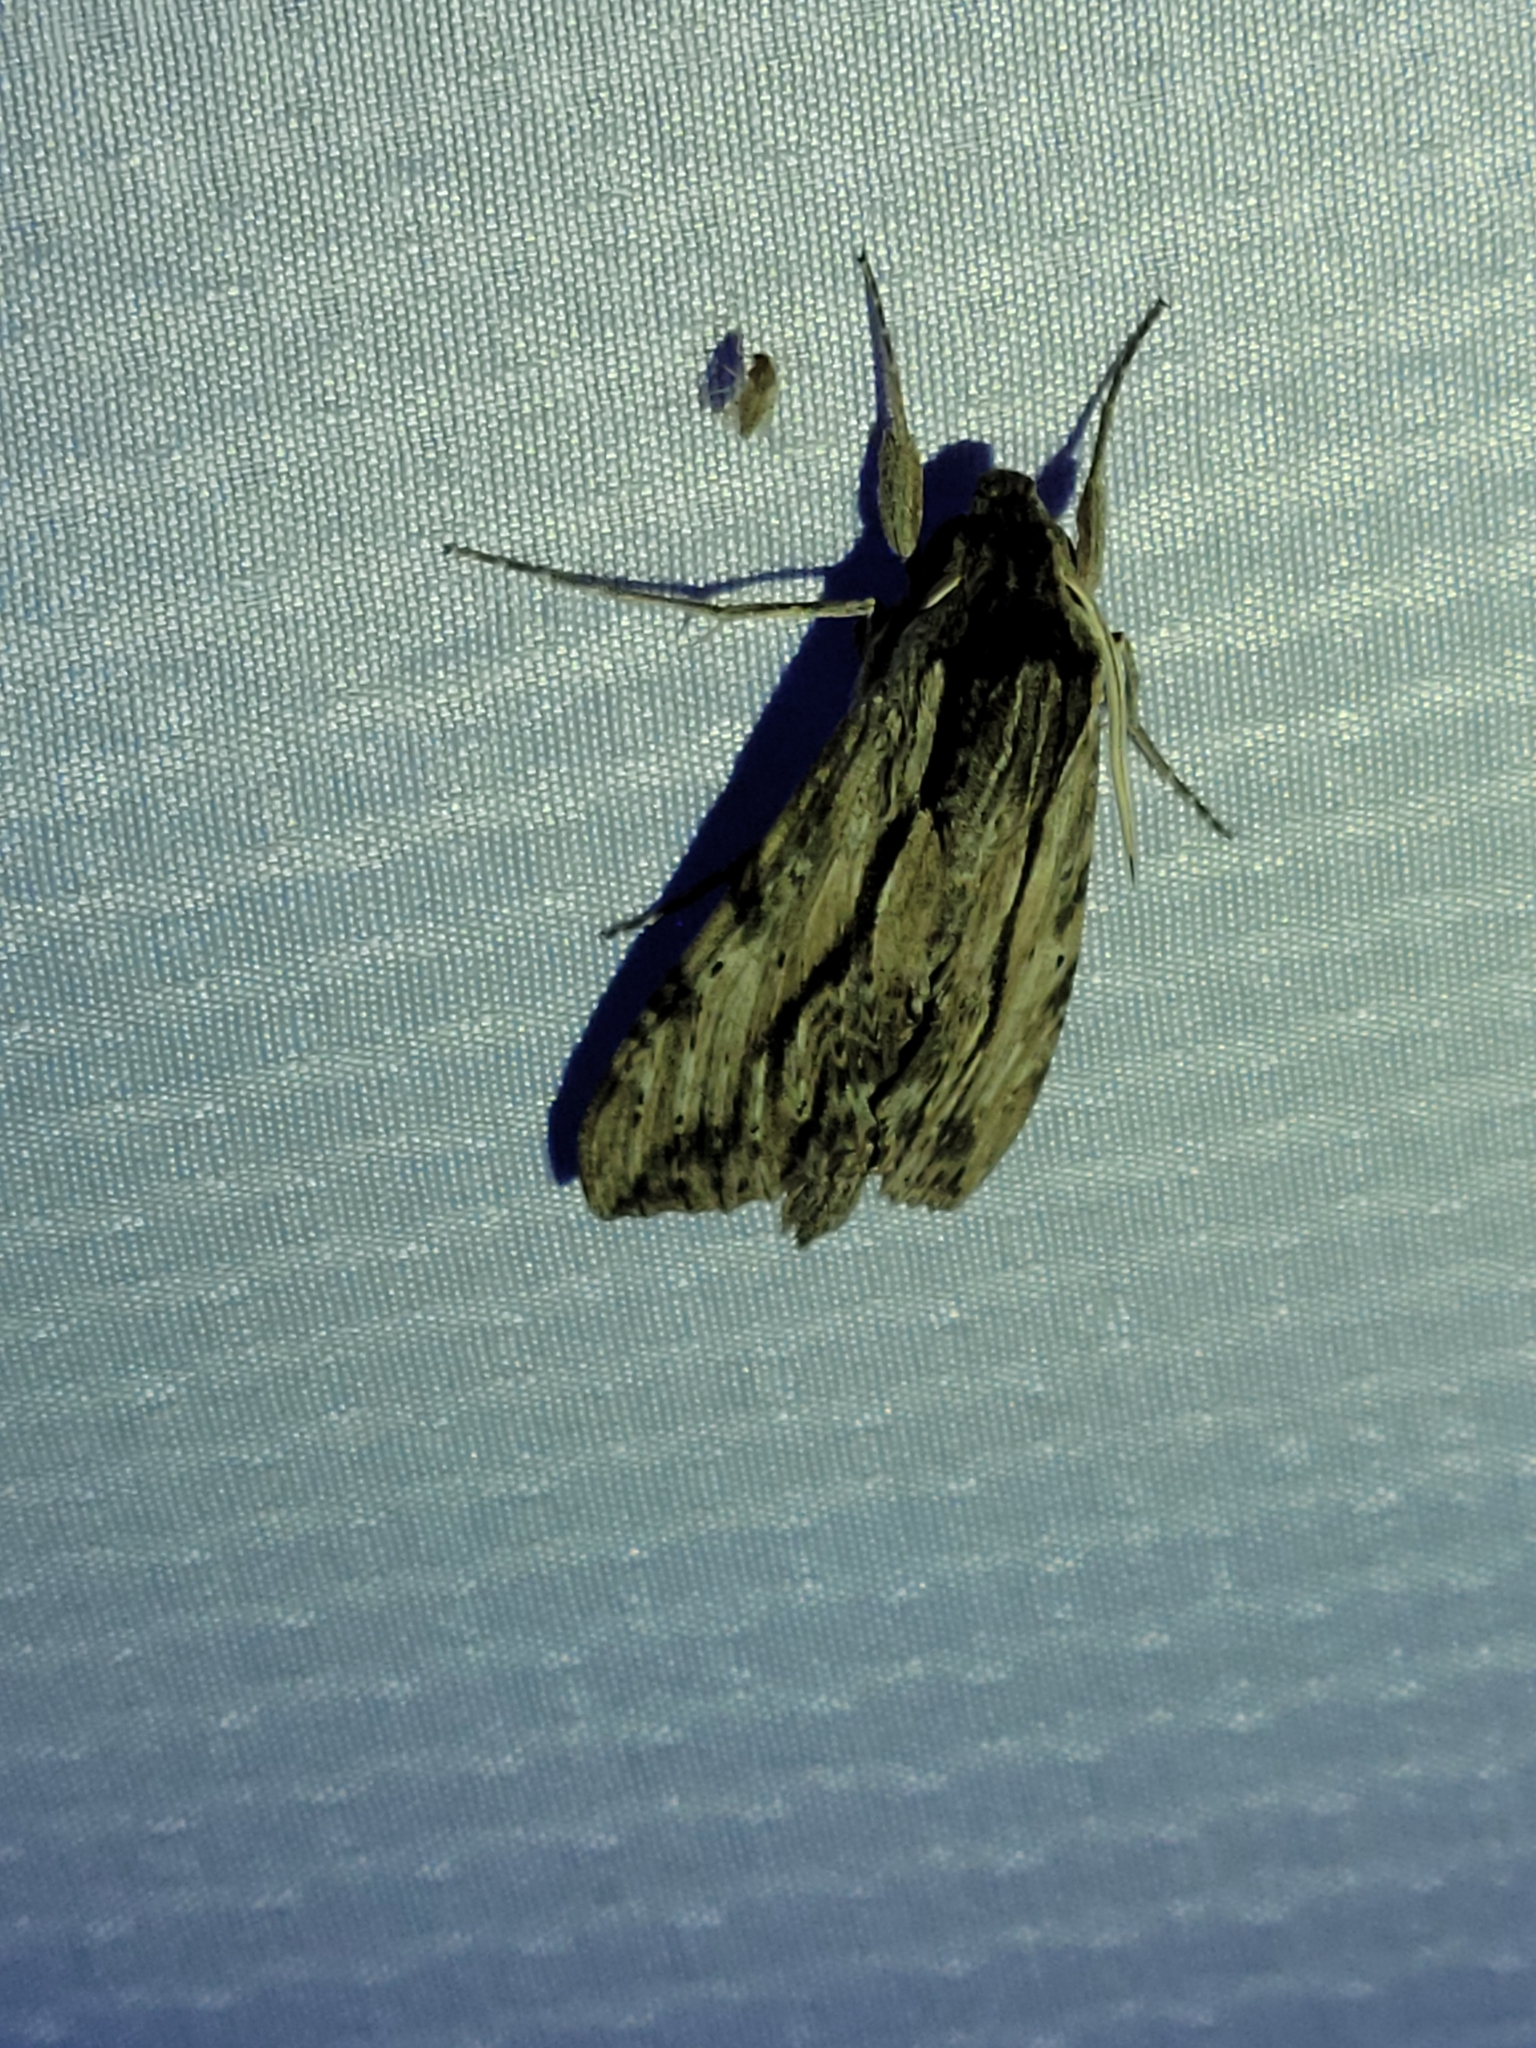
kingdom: Animalia
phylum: Arthropoda
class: Insecta
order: Lepidoptera
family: Sphingidae
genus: Erinnyis
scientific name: Erinnyis obscura
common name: Obscure sphinx
